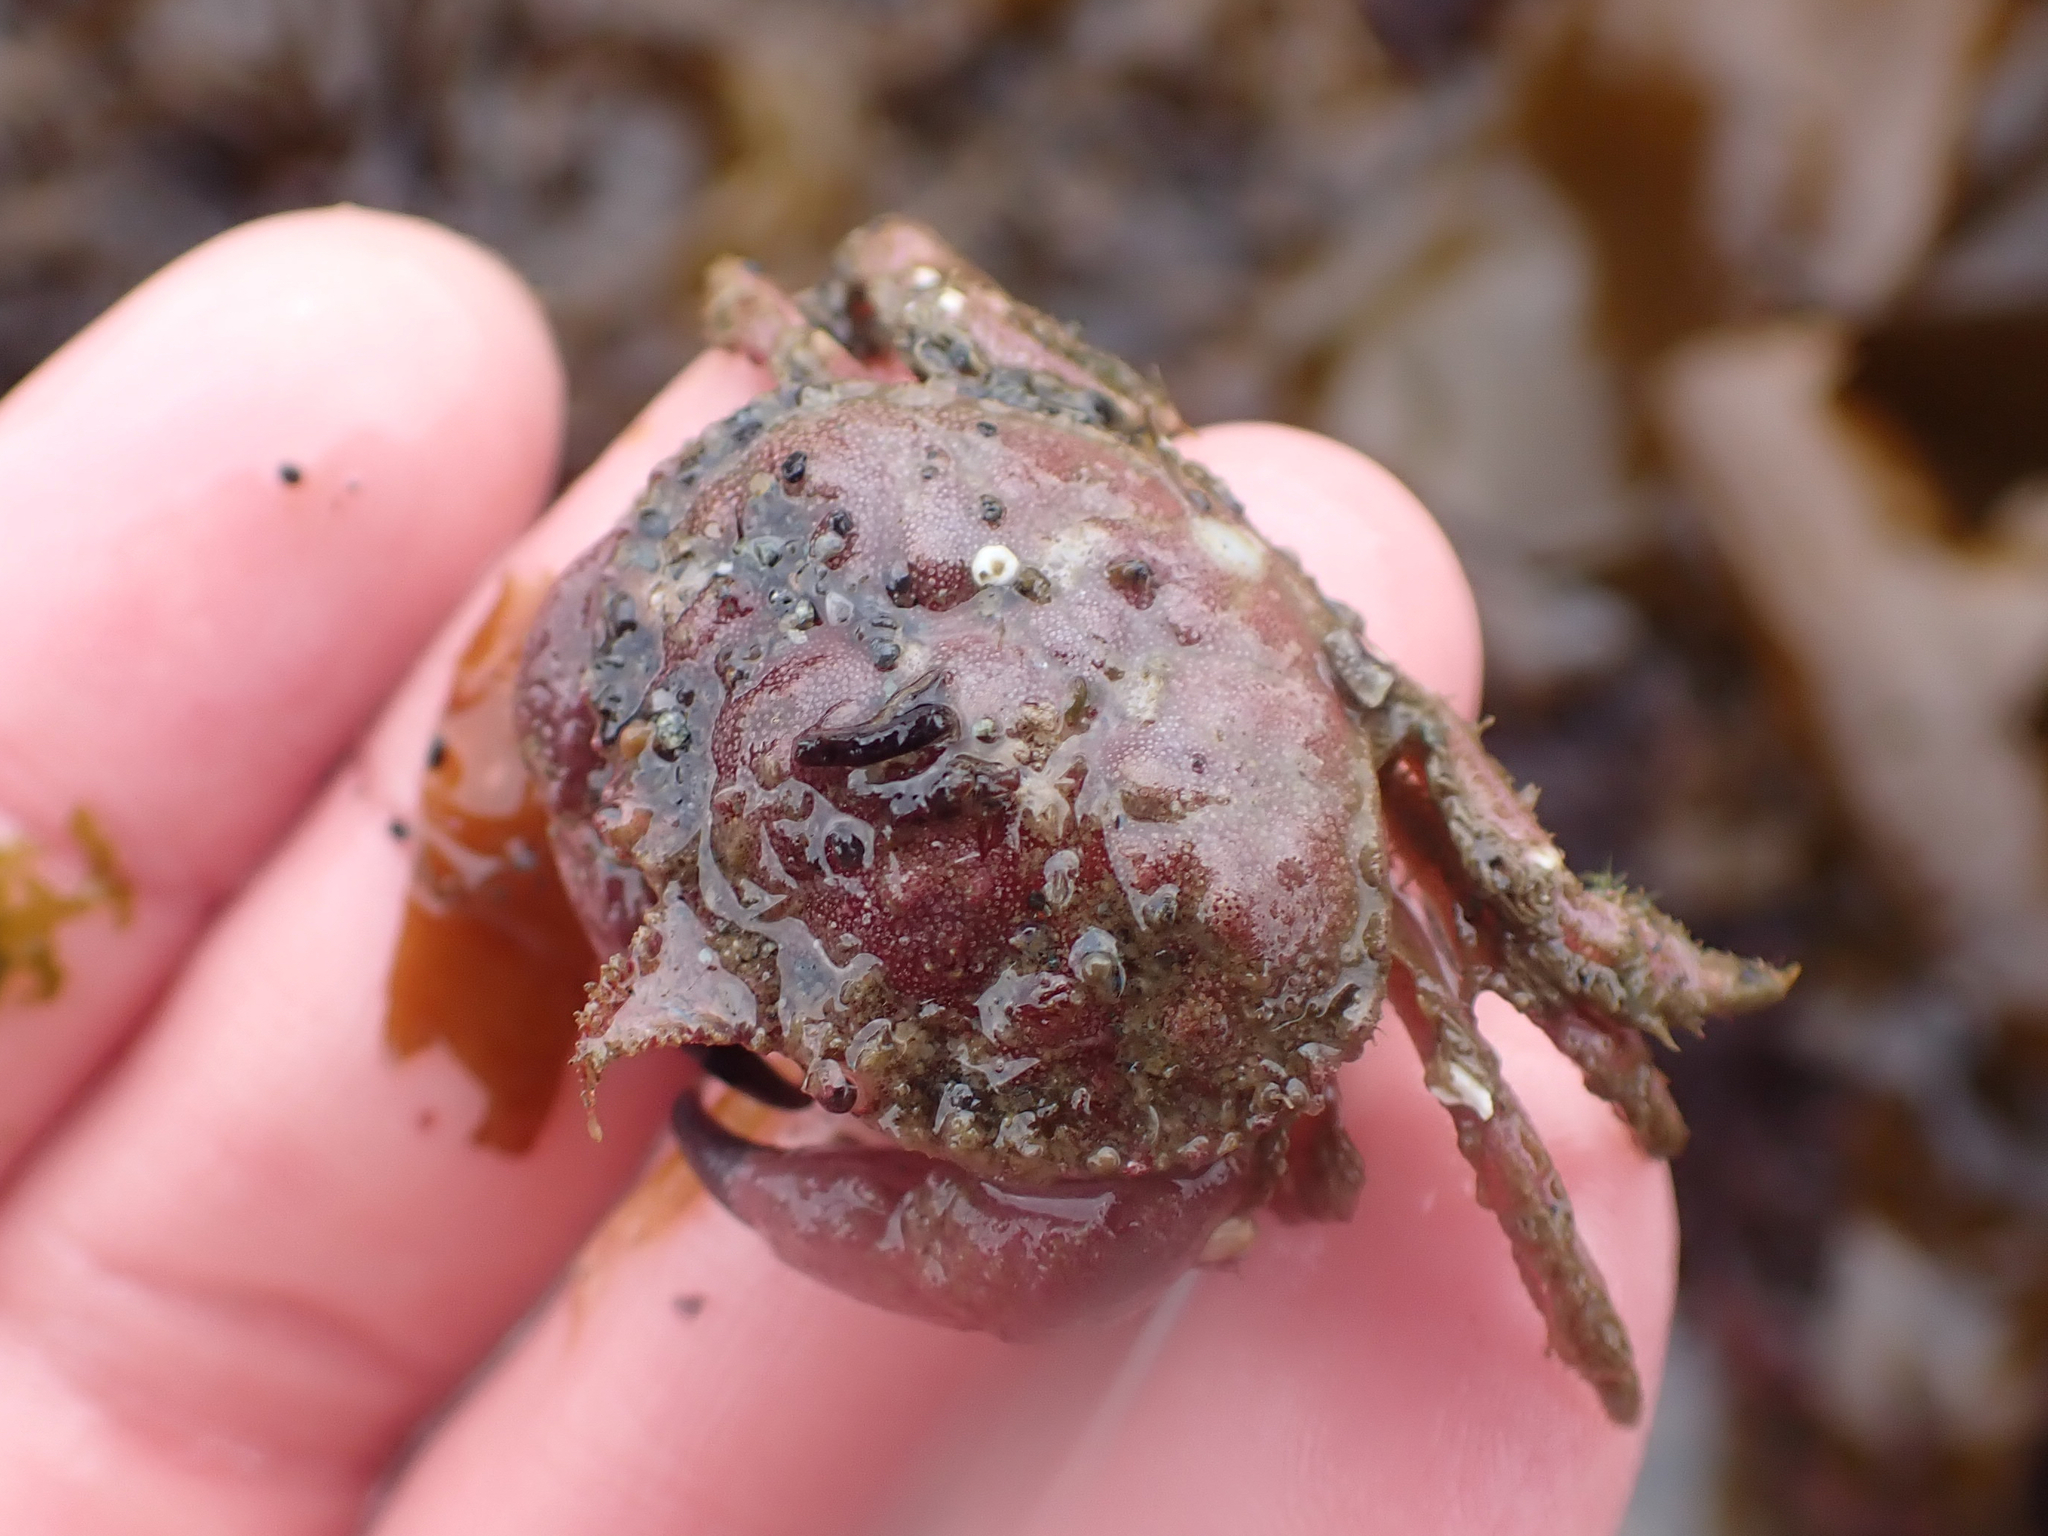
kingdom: Animalia
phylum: Arthropoda
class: Malacostraca
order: Decapoda
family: Cancridae
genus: Glebocarcinus
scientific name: Glebocarcinus oregonensis
